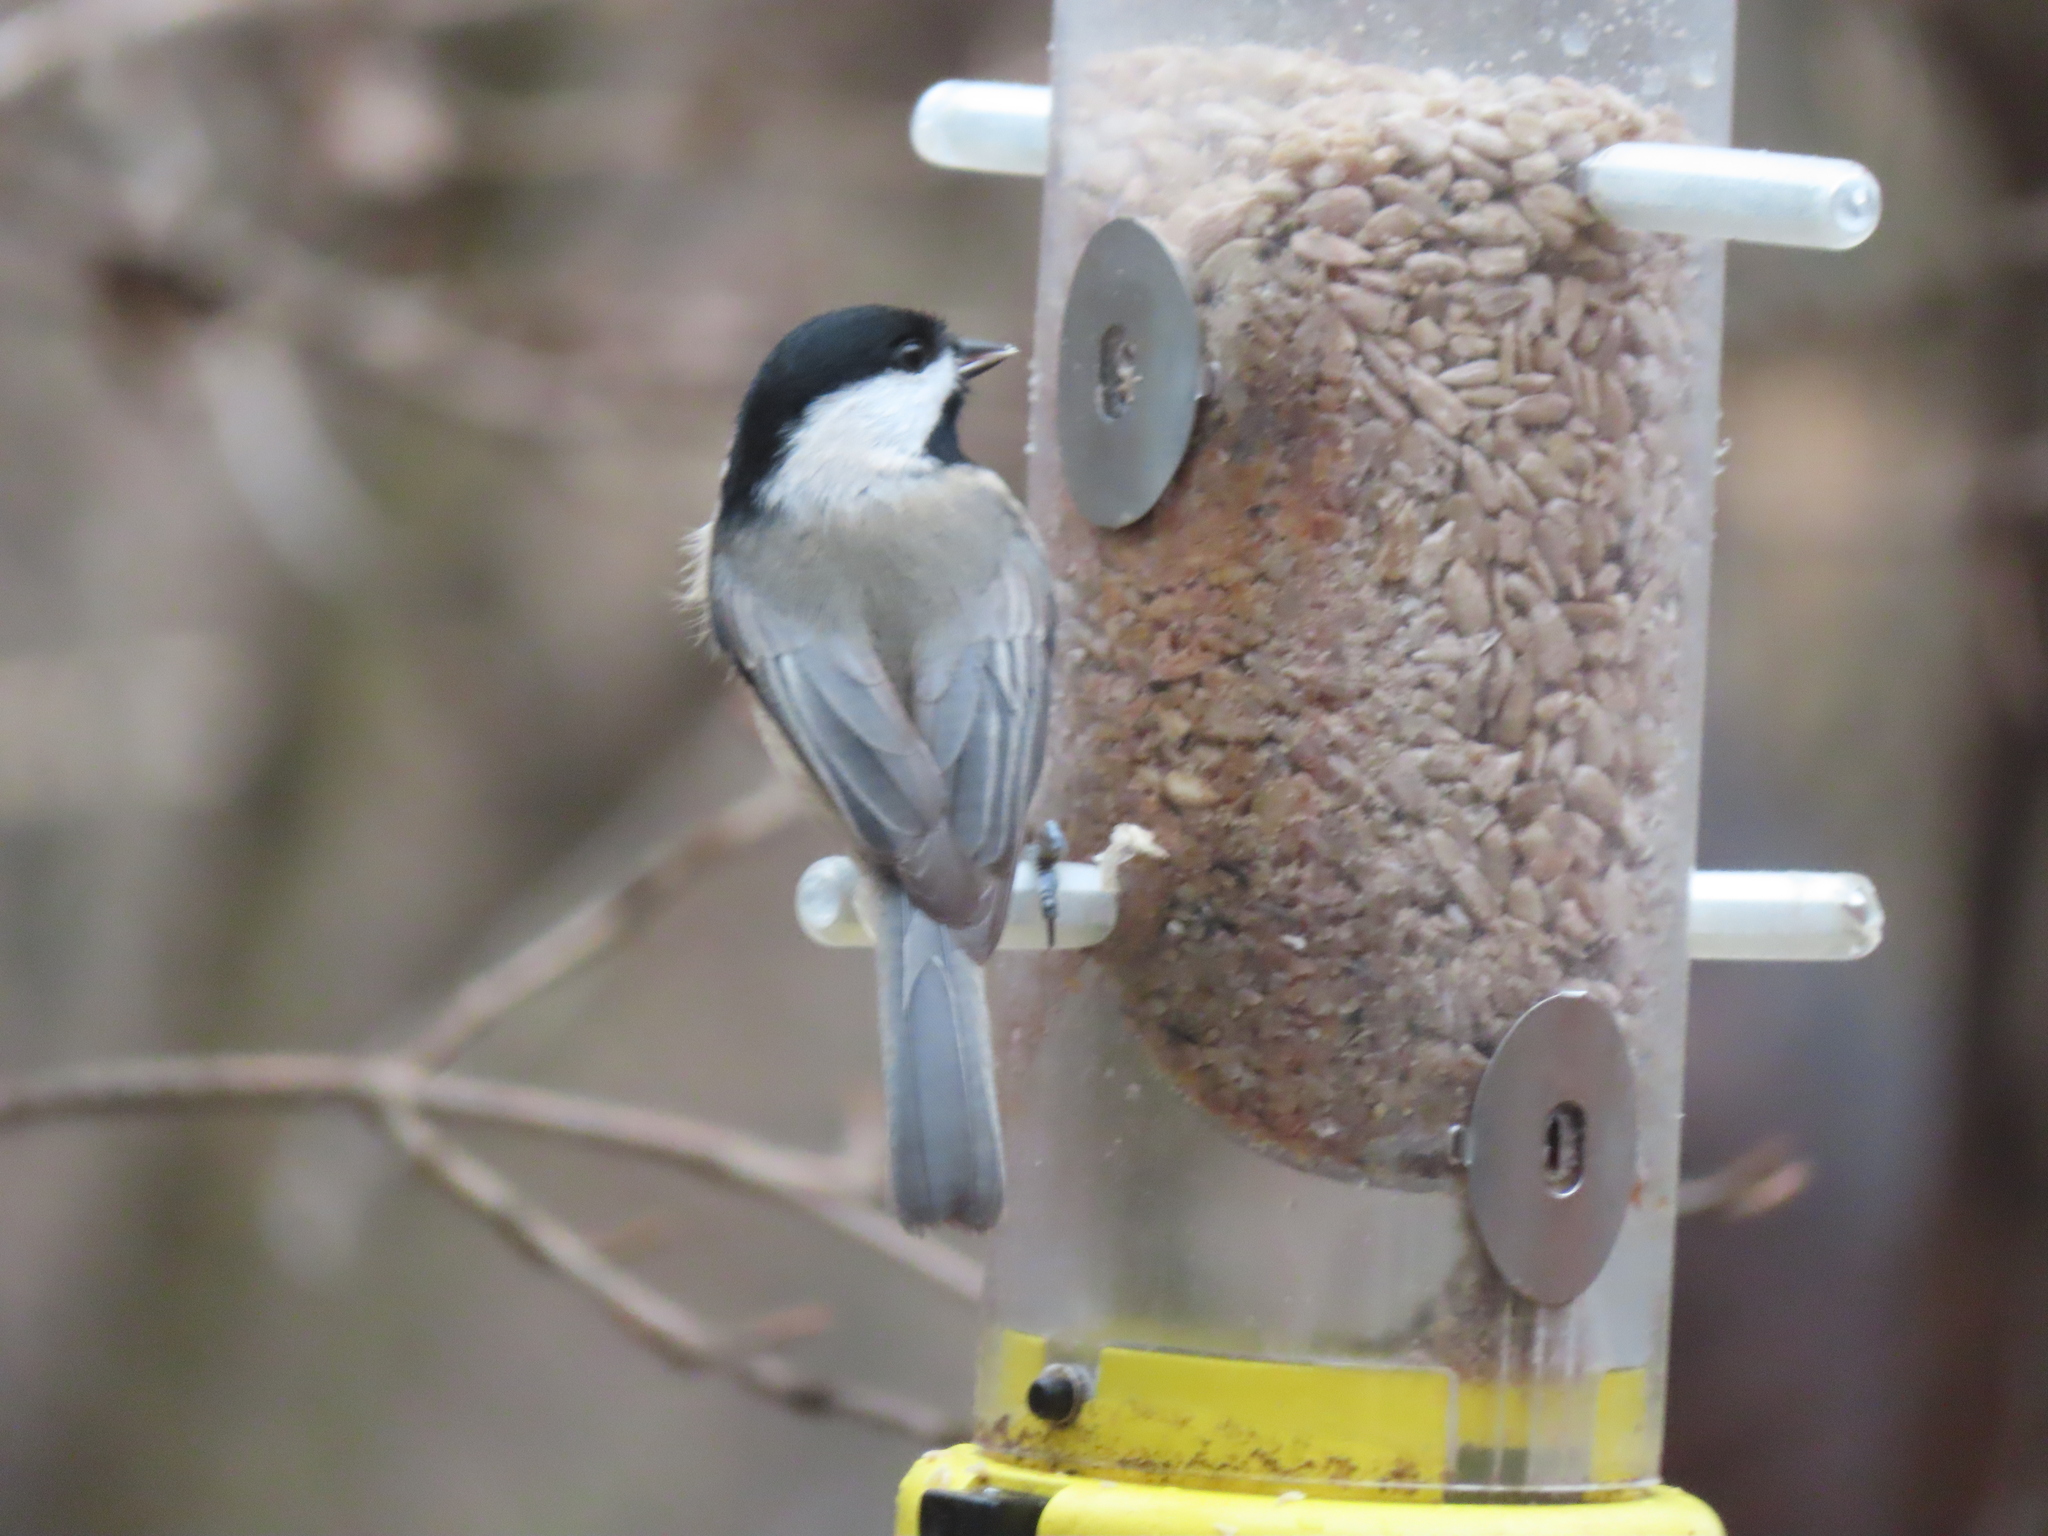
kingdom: Animalia
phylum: Chordata
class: Aves
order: Passeriformes
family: Paridae
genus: Poecile
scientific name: Poecile carolinensis
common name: Carolina chickadee
